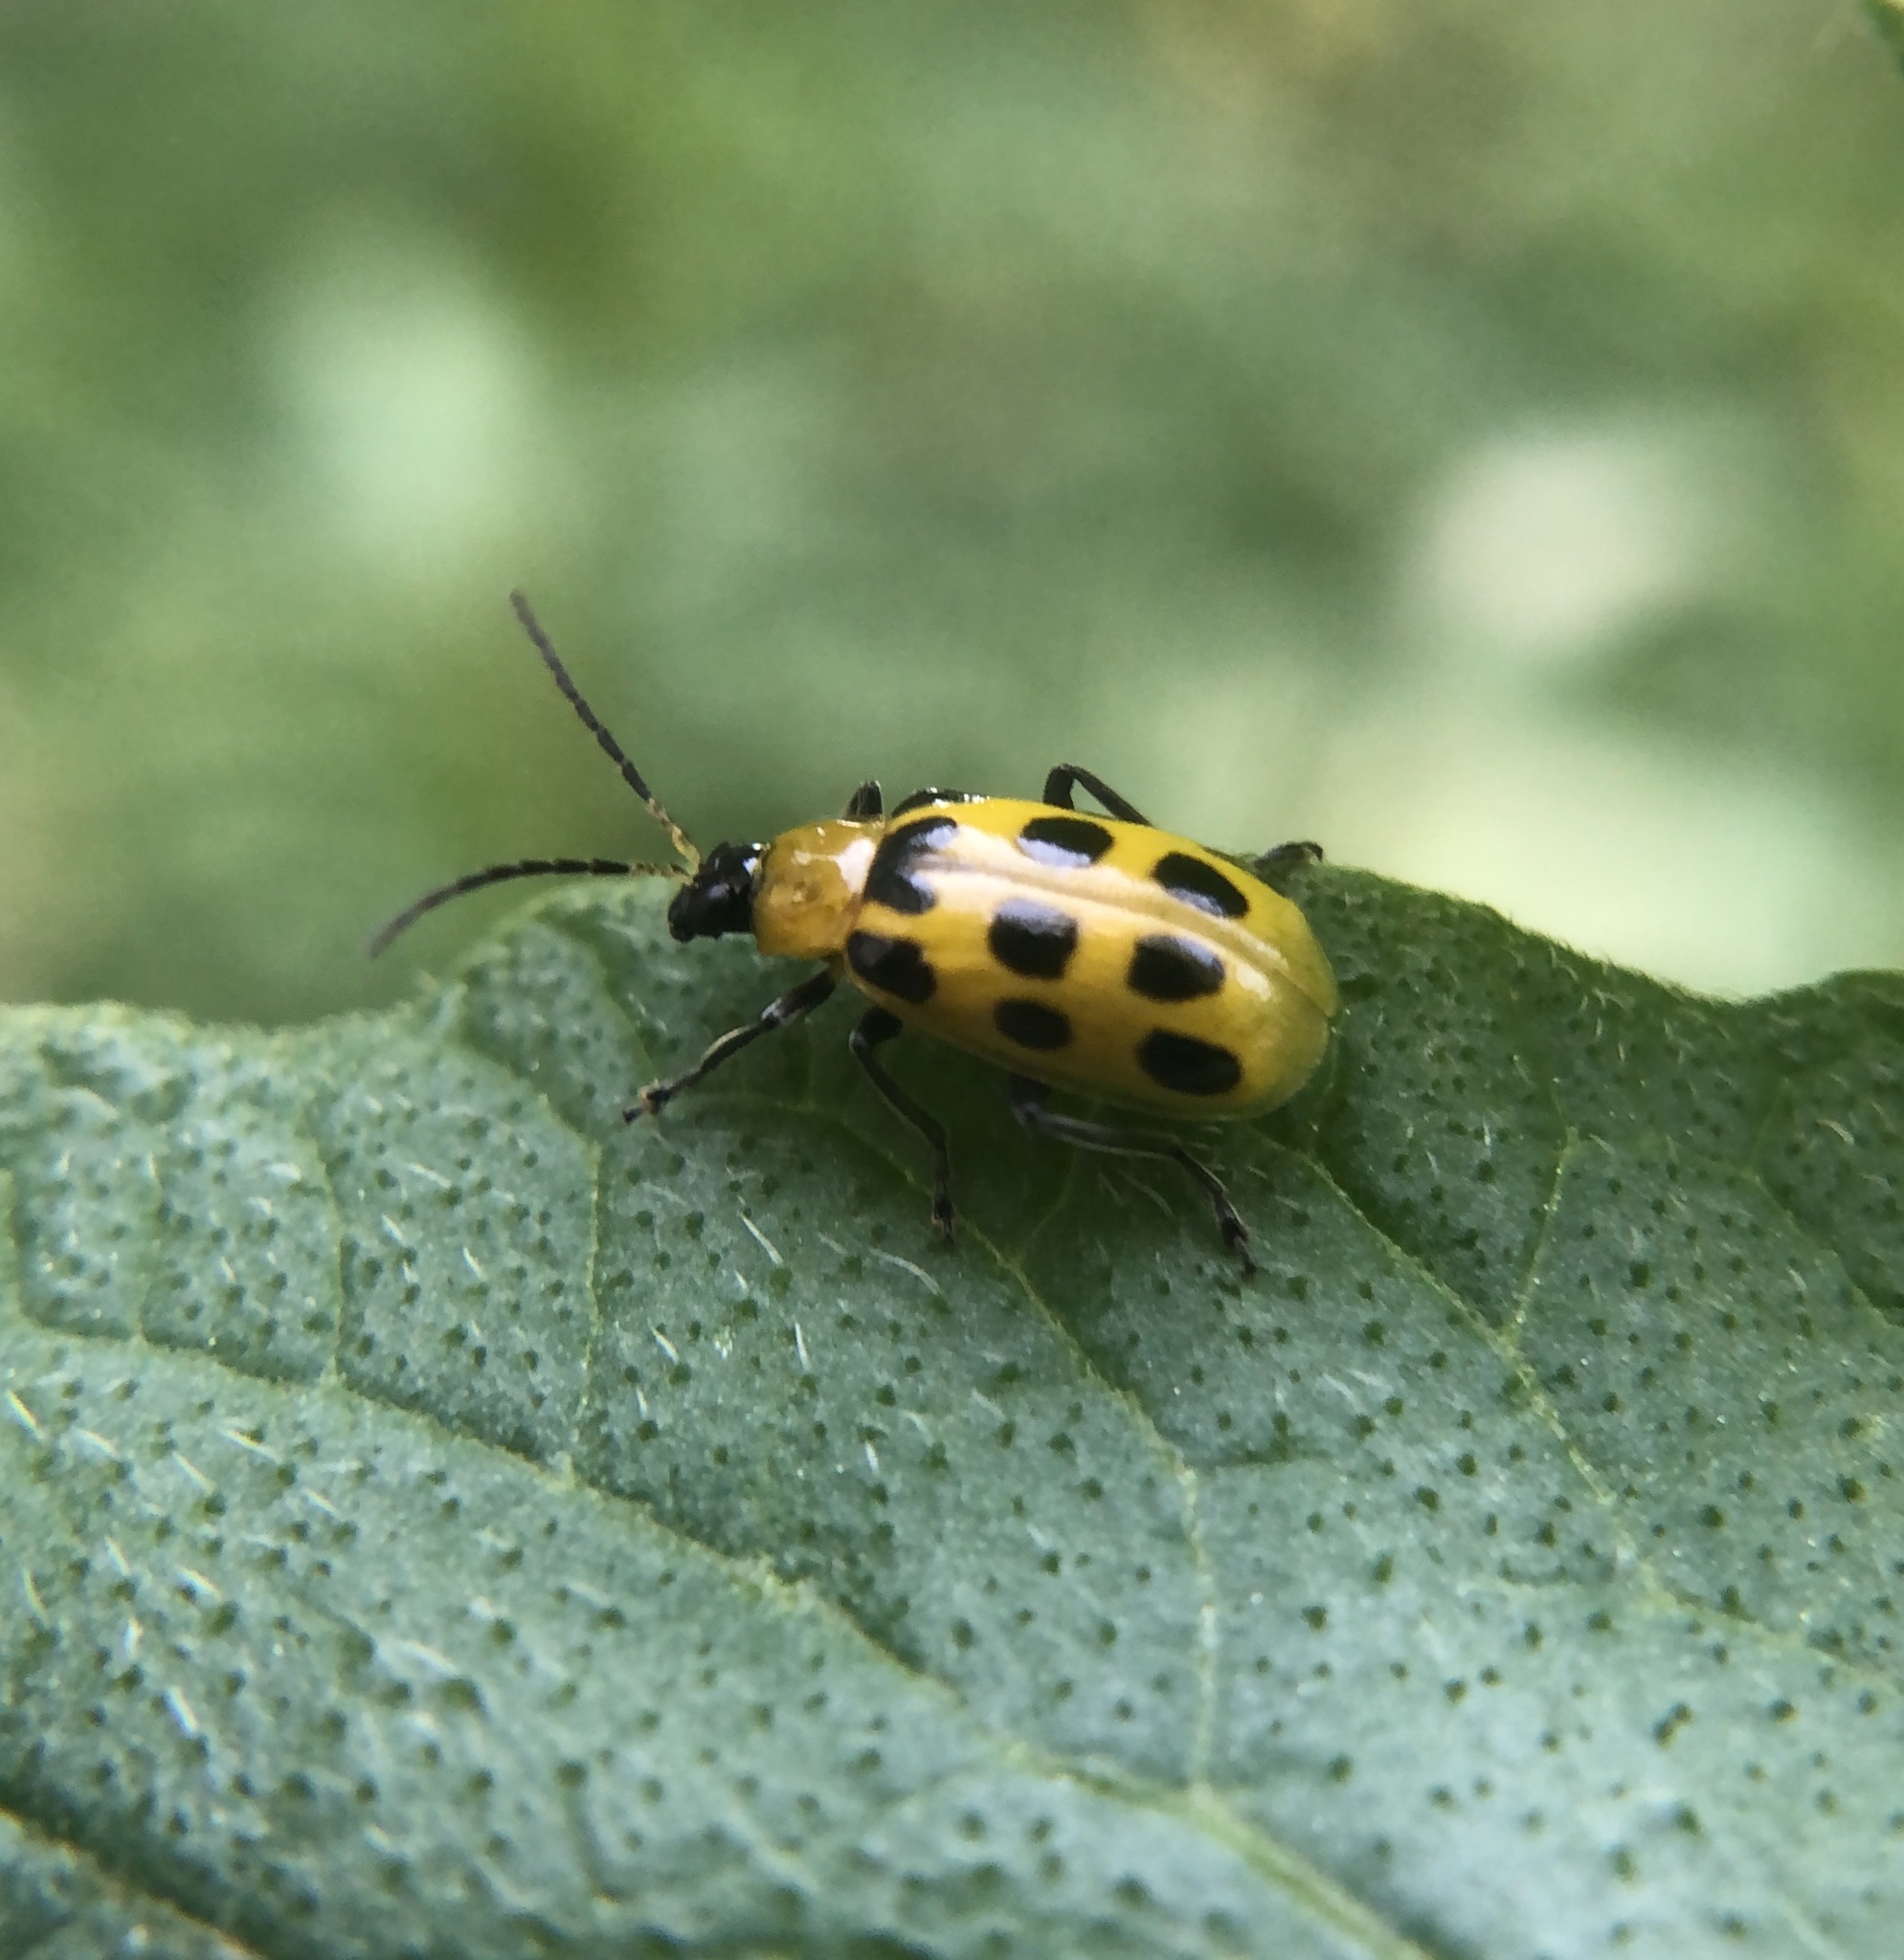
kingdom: Animalia
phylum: Arthropoda
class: Insecta
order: Coleoptera
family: Chrysomelidae
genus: Diabrotica
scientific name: Diabrotica undecimpunctata
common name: Spotted cucumber beetle
